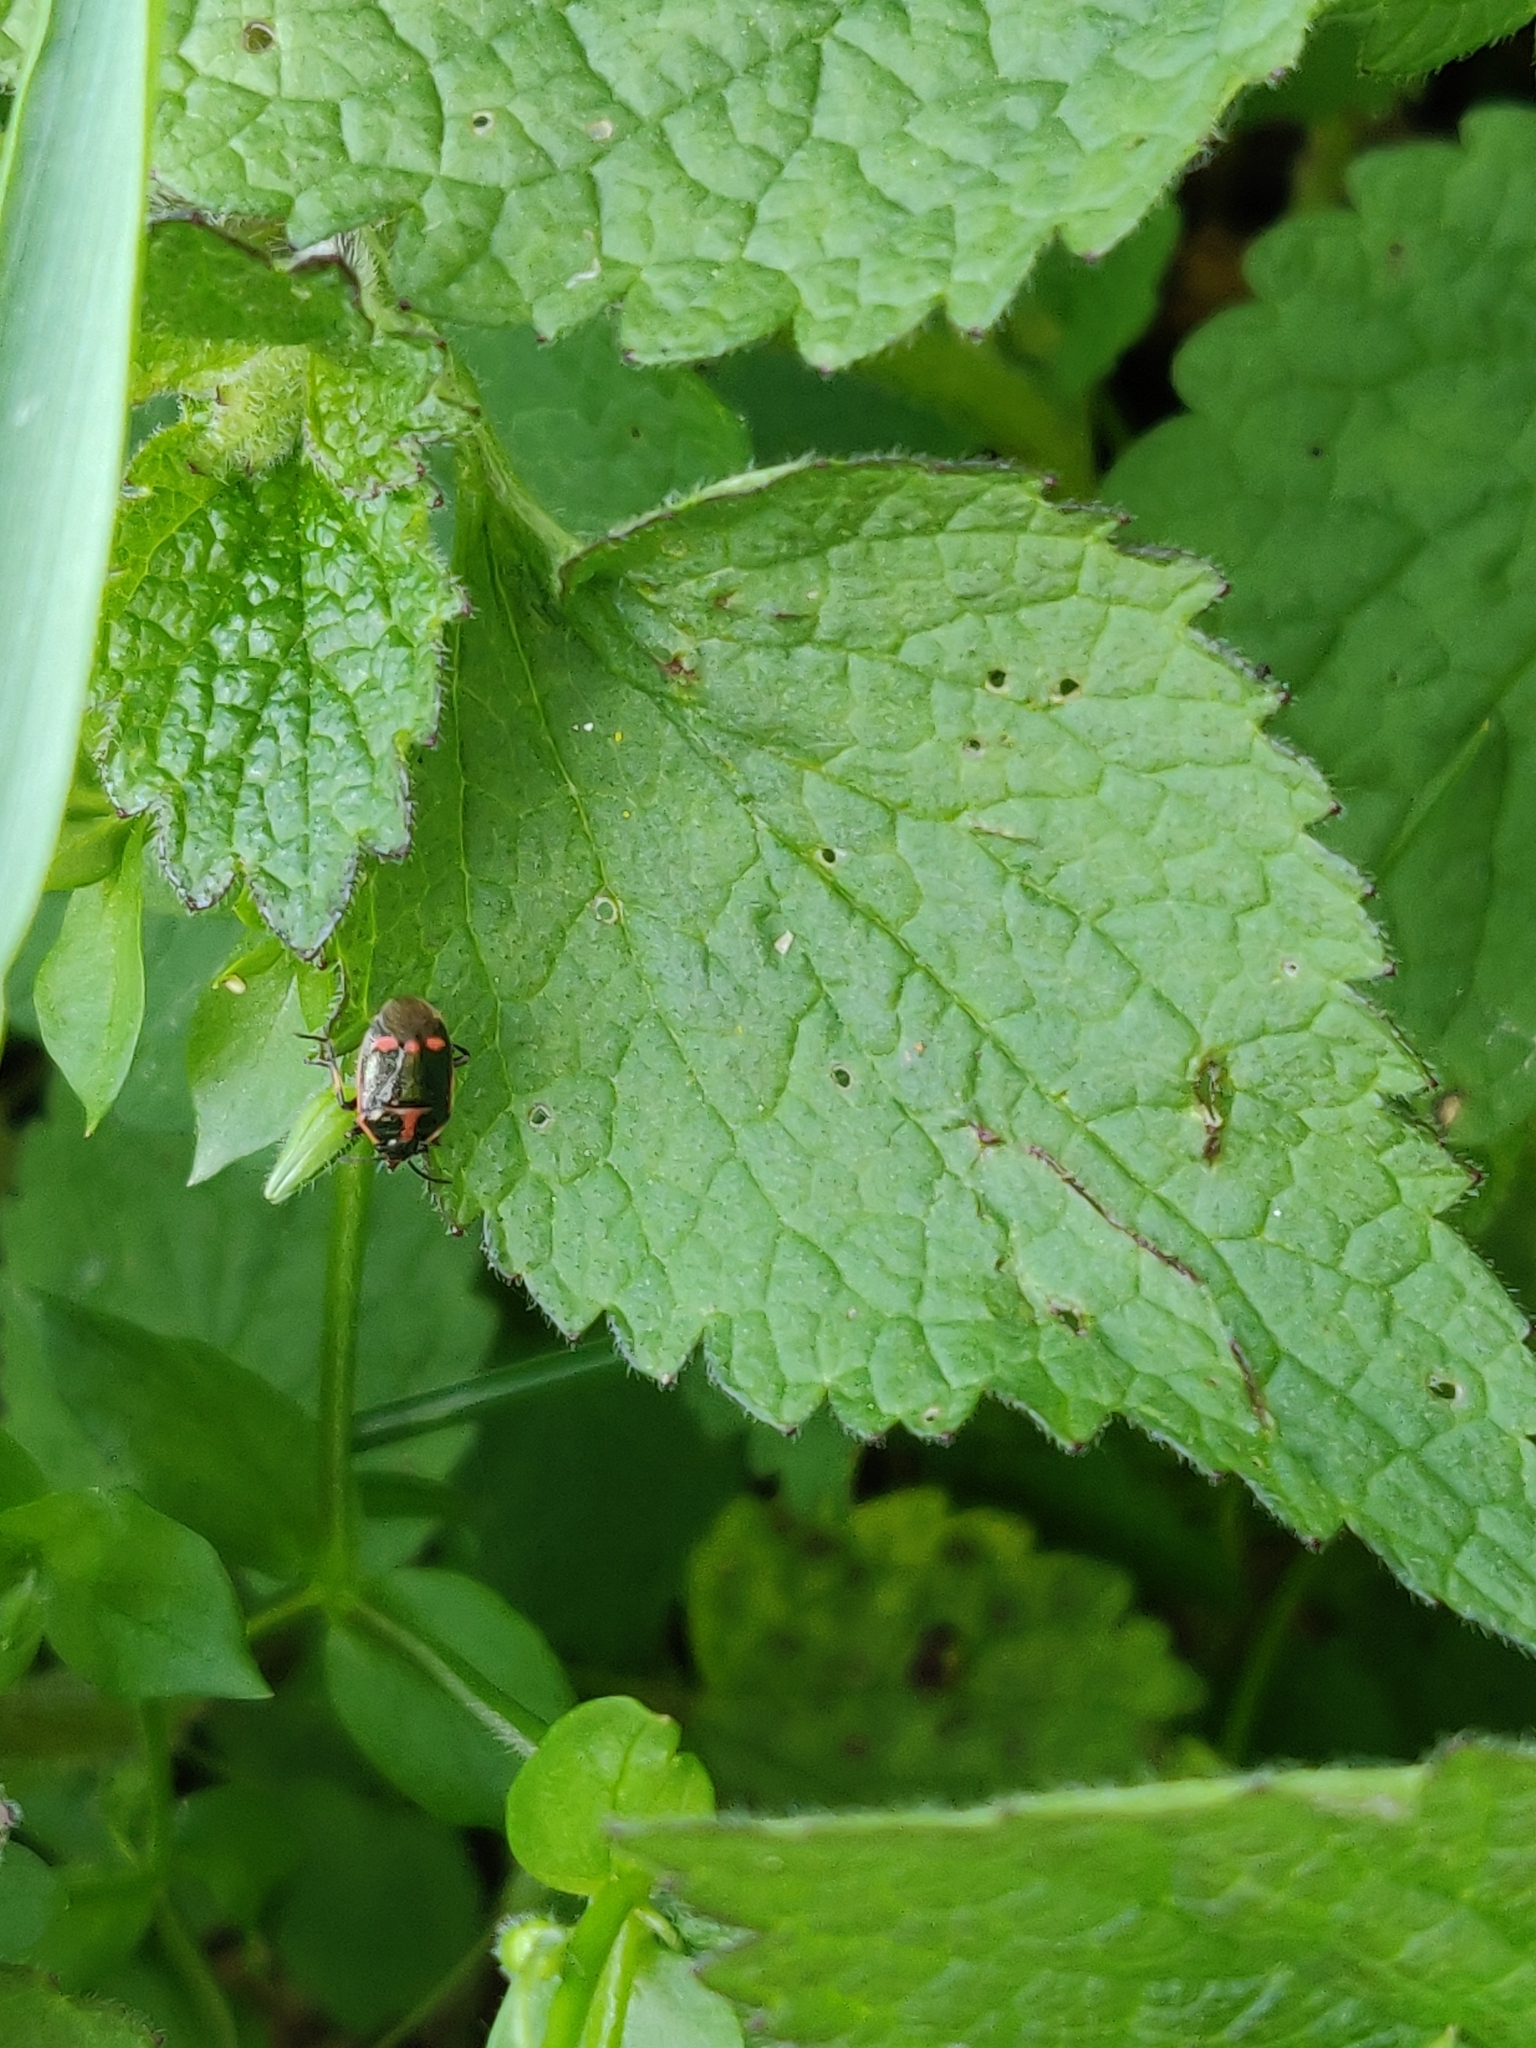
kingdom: Animalia
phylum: Arthropoda
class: Insecta
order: Hemiptera
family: Pentatomidae
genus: Eurydema
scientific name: Eurydema oleracea
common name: Cabbage bug
